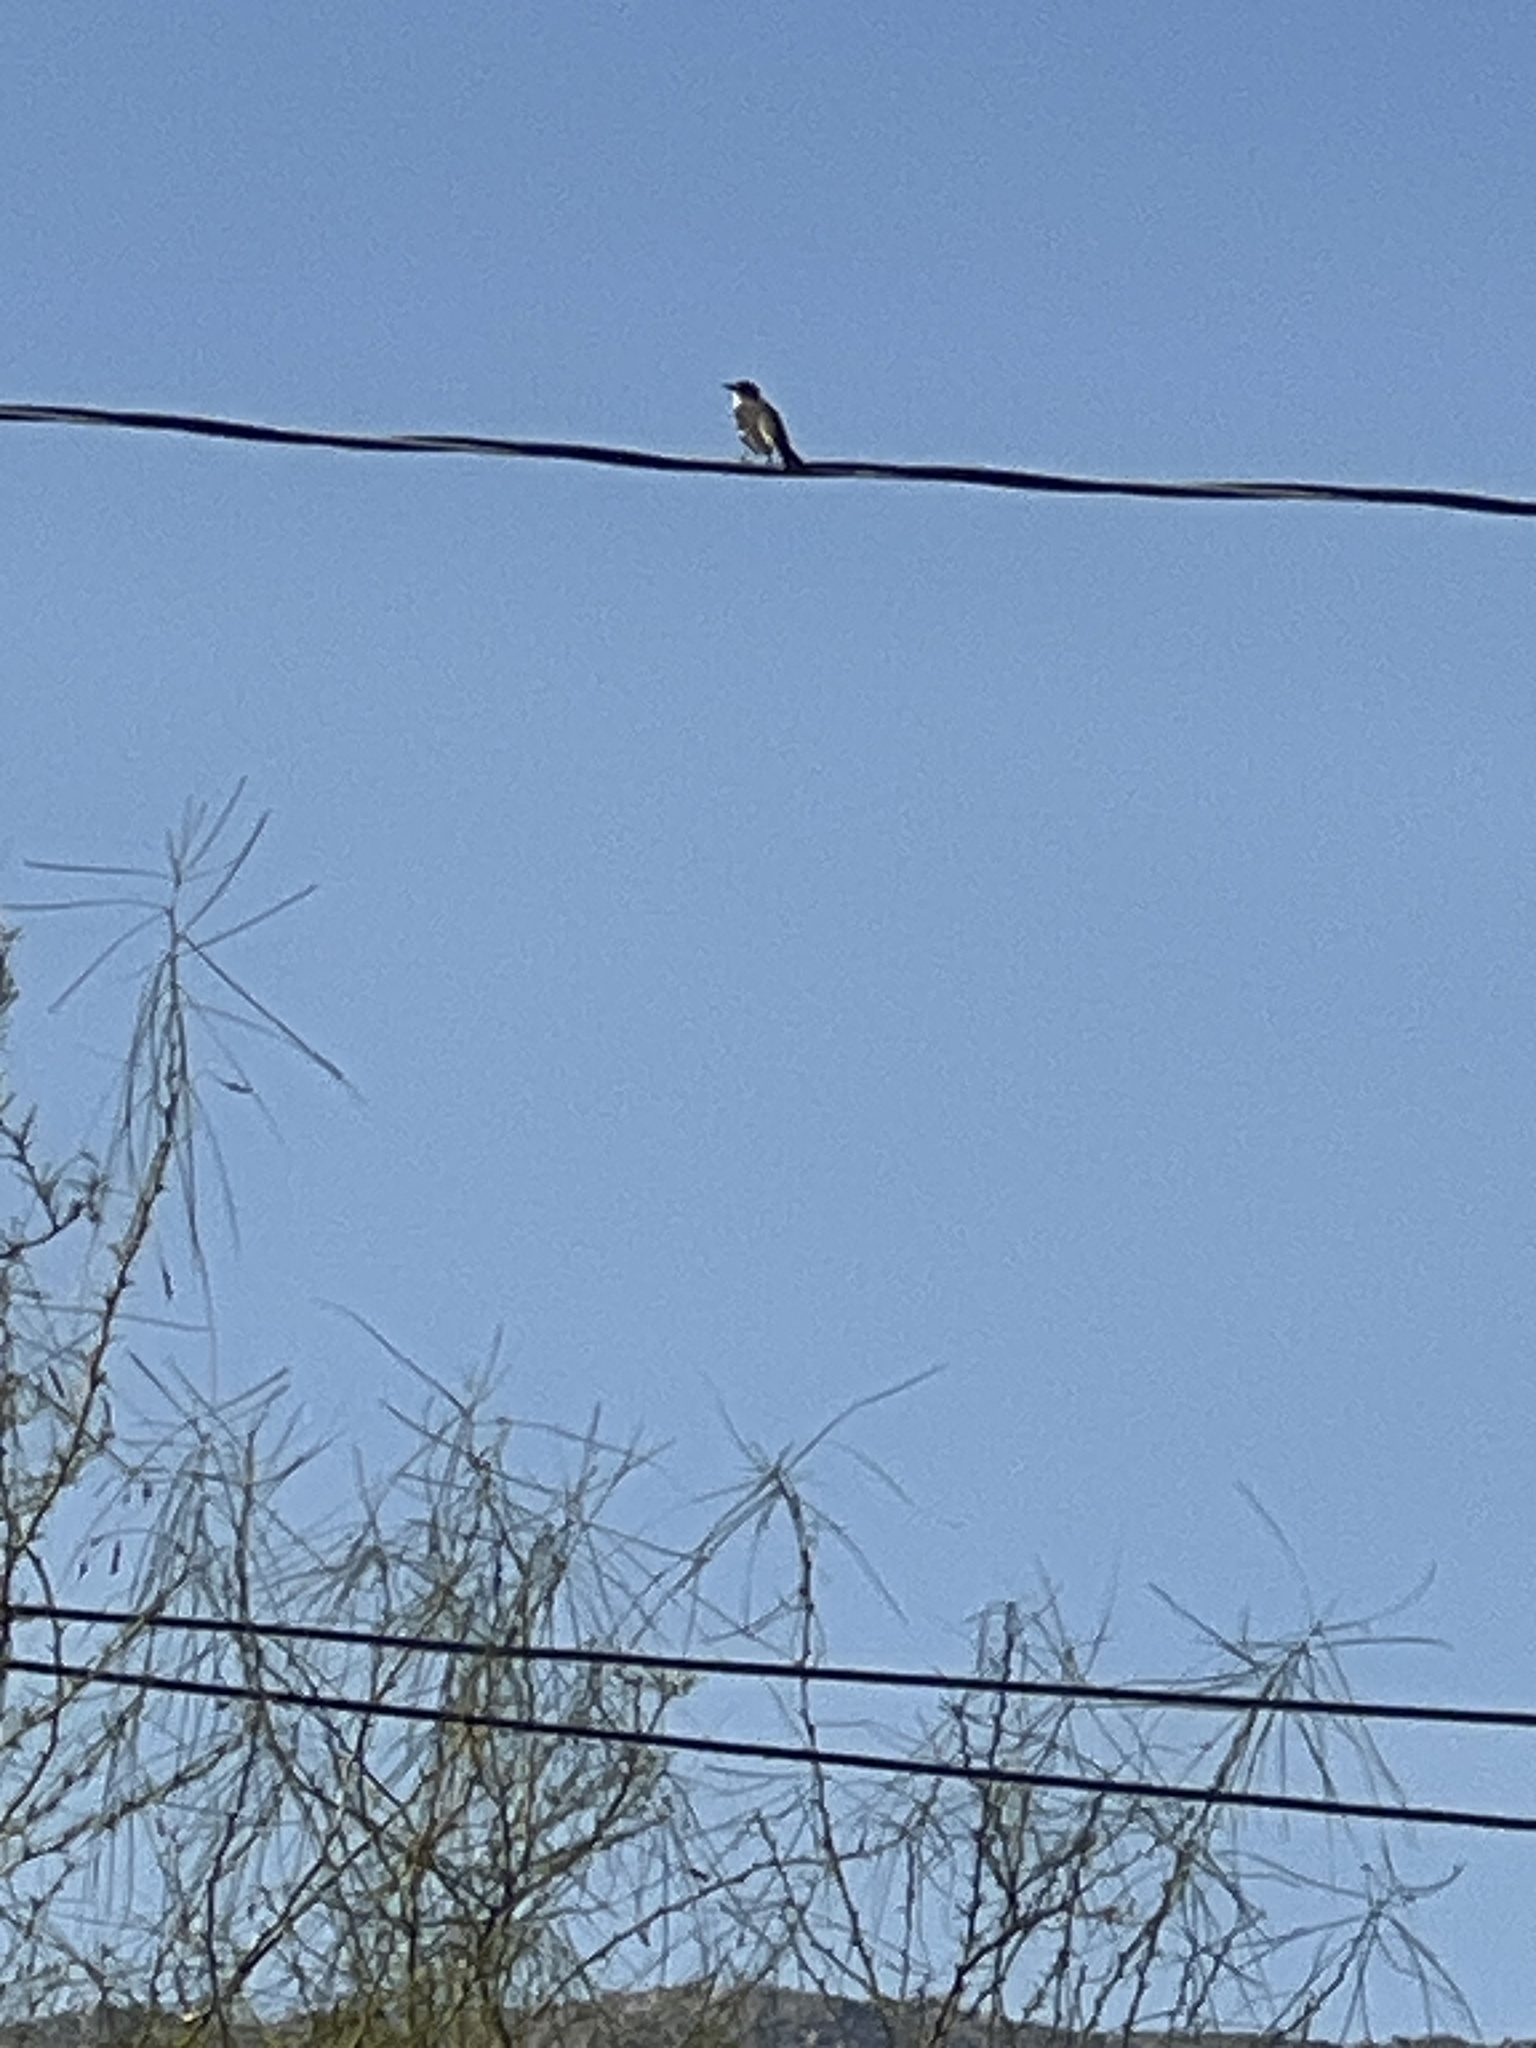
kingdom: Animalia
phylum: Chordata
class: Aves
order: Passeriformes
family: Mimidae
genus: Mimus
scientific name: Mimus polyglottos
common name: Northern mockingbird
